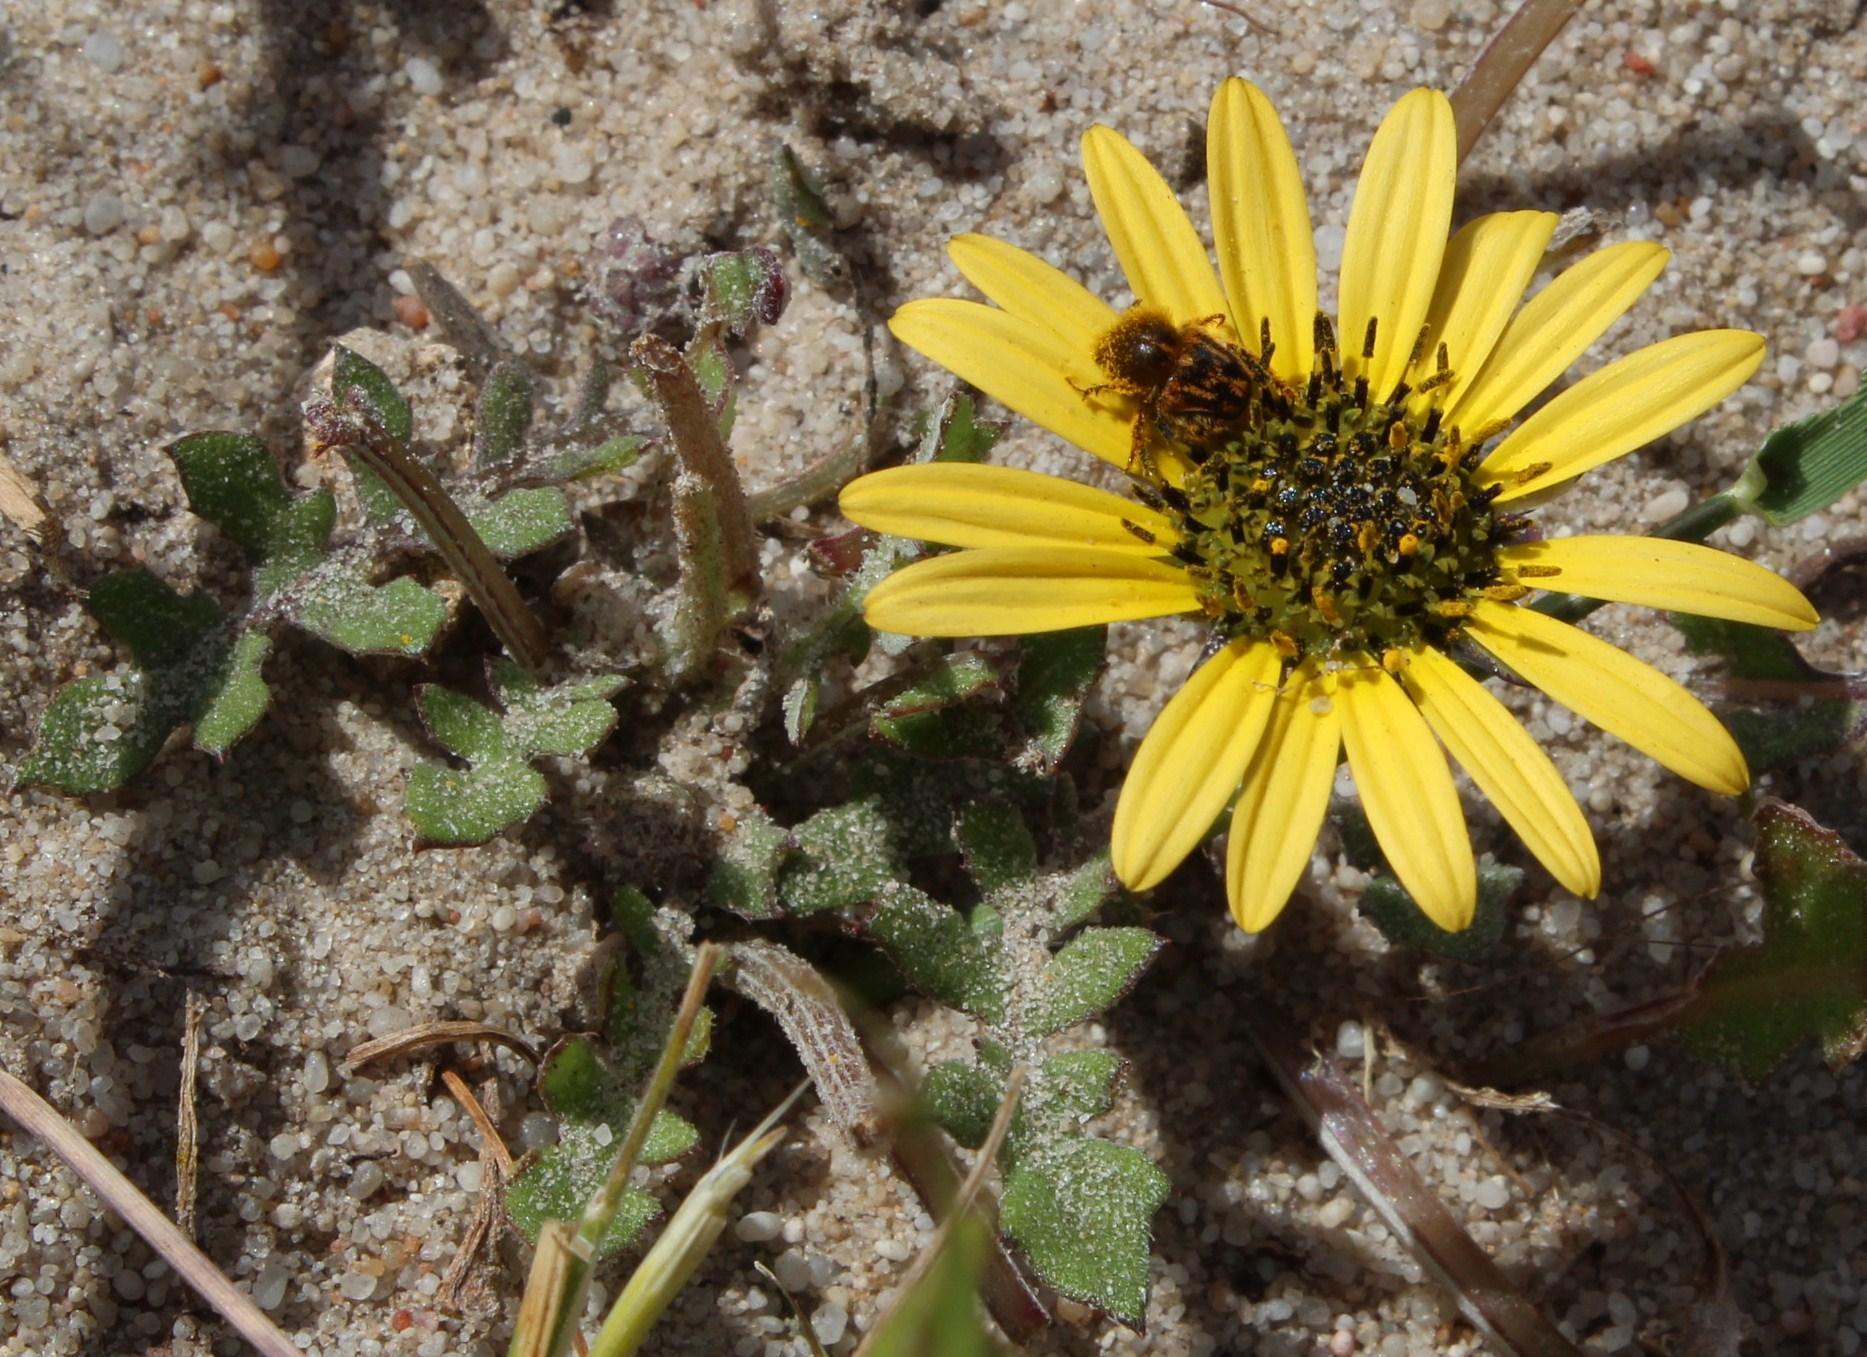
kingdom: Plantae
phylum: Tracheophyta
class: Magnoliopsida
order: Asterales
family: Asteraceae
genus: Arctotheca
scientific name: Arctotheca calendula
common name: Capeweed
